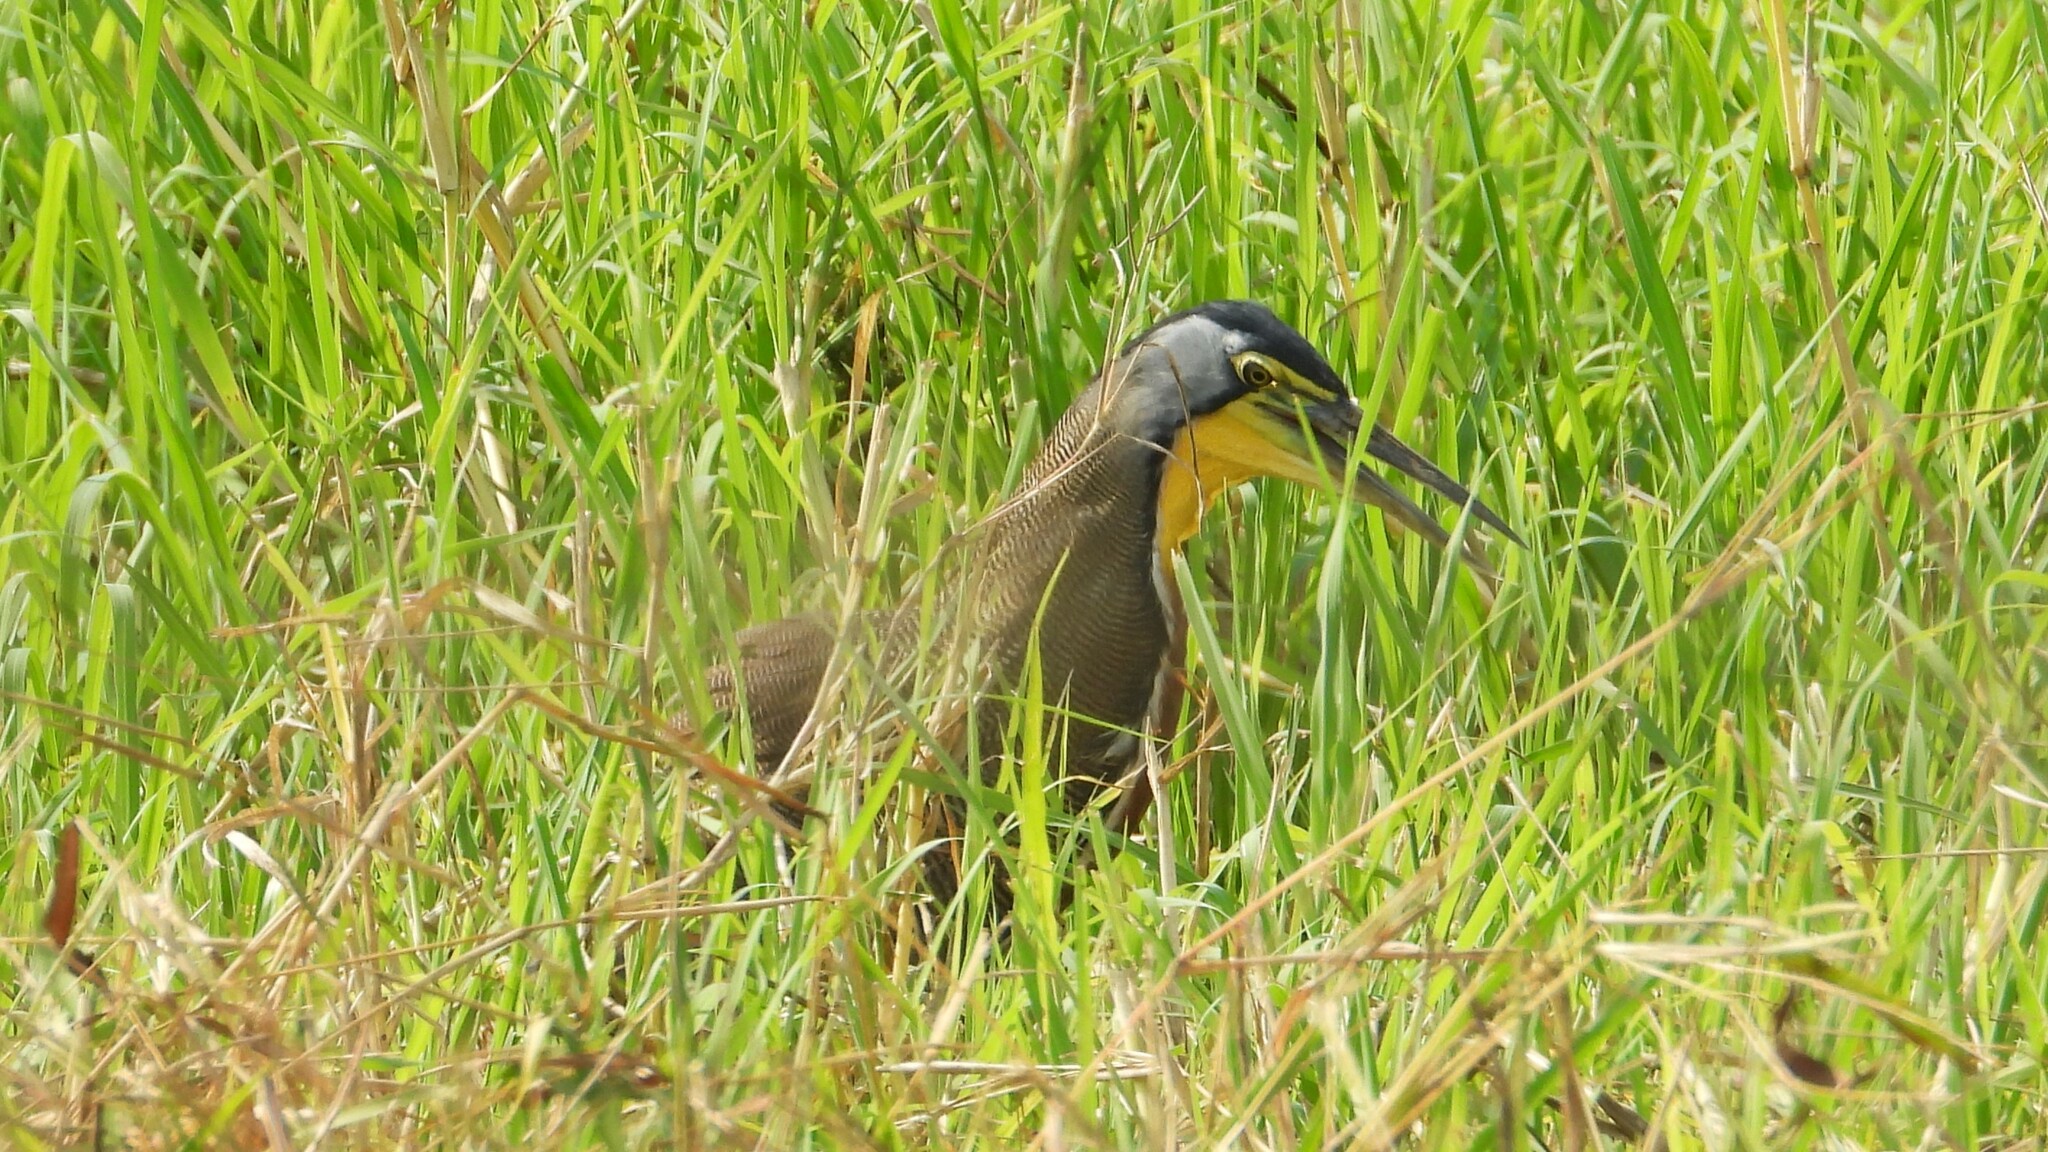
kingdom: Animalia
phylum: Chordata
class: Aves
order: Pelecaniformes
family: Ardeidae
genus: Tigrisoma
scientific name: Tigrisoma mexicanum
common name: Bare-throated tiger-heron
